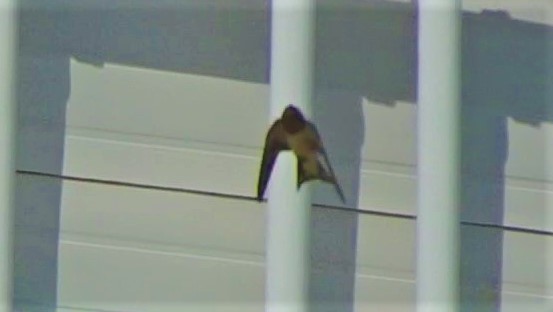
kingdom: Animalia
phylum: Chordata
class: Aves
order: Passeriformes
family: Hirundinidae
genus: Hirundo
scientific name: Hirundo rustica
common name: Barn swallow
